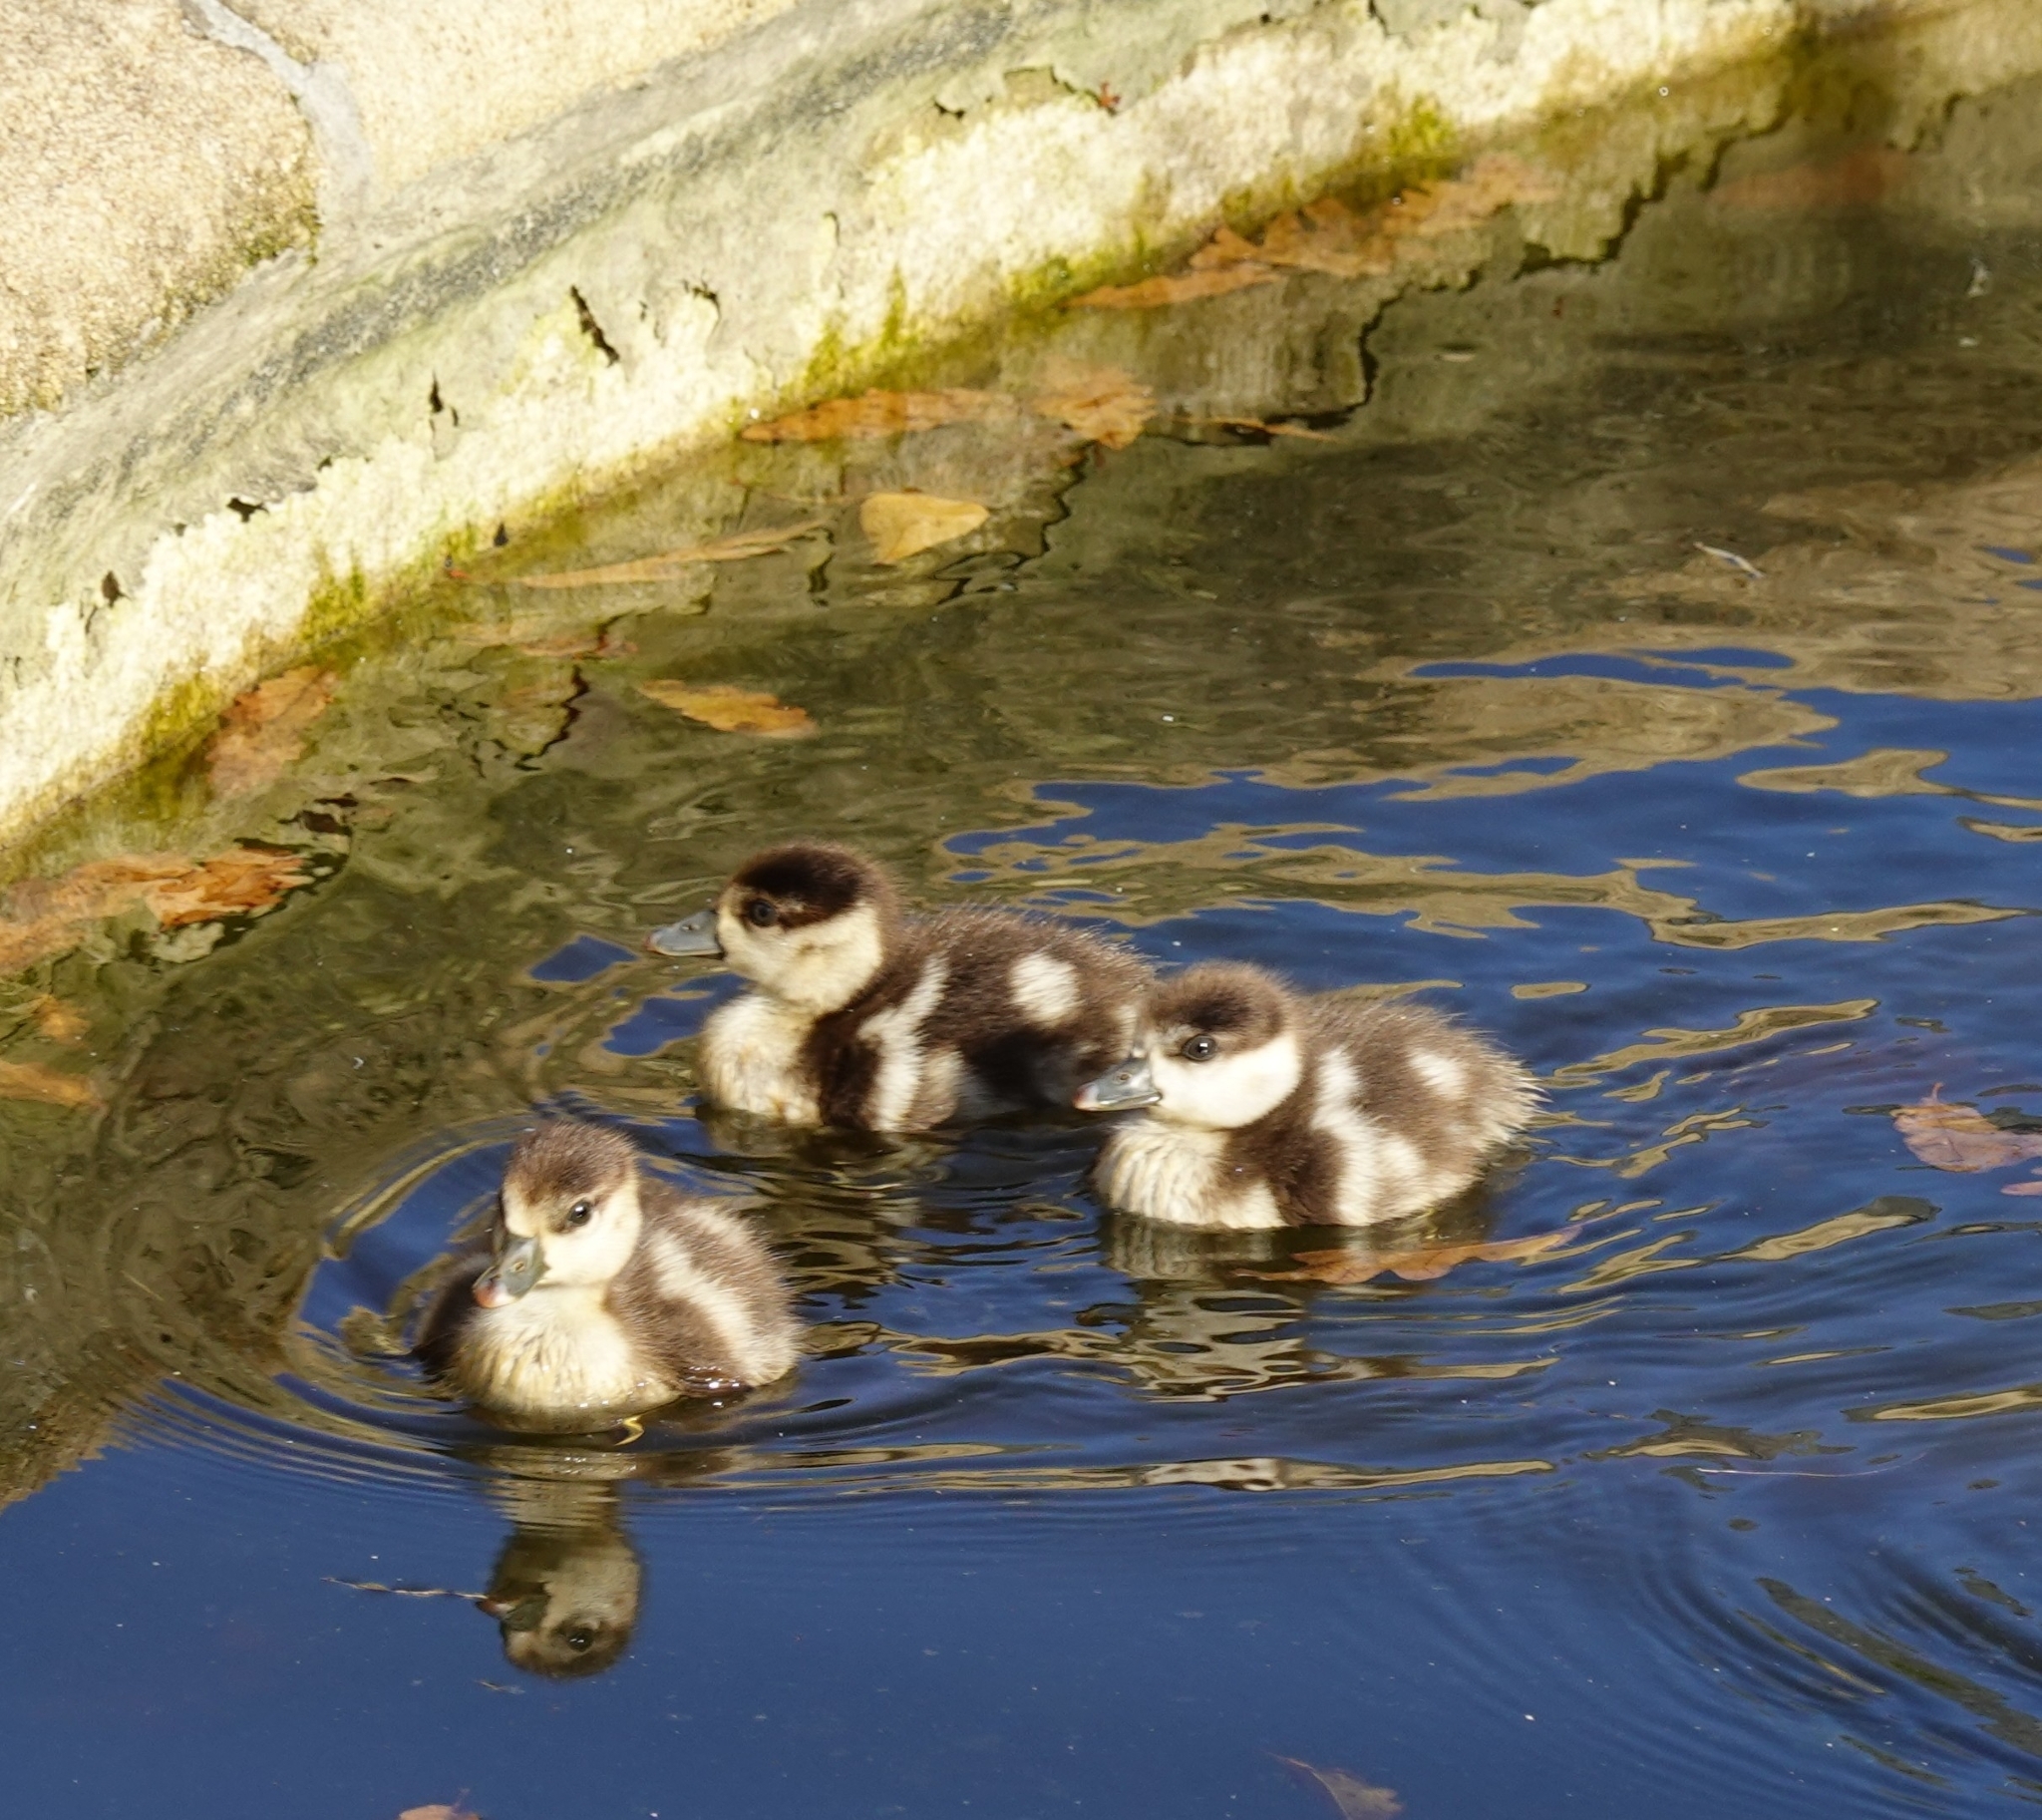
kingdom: Animalia
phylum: Chordata
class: Aves
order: Anseriformes
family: Anatidae
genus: Alopochen
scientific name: Alopochen aegyptiaca
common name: Egyptian goose
